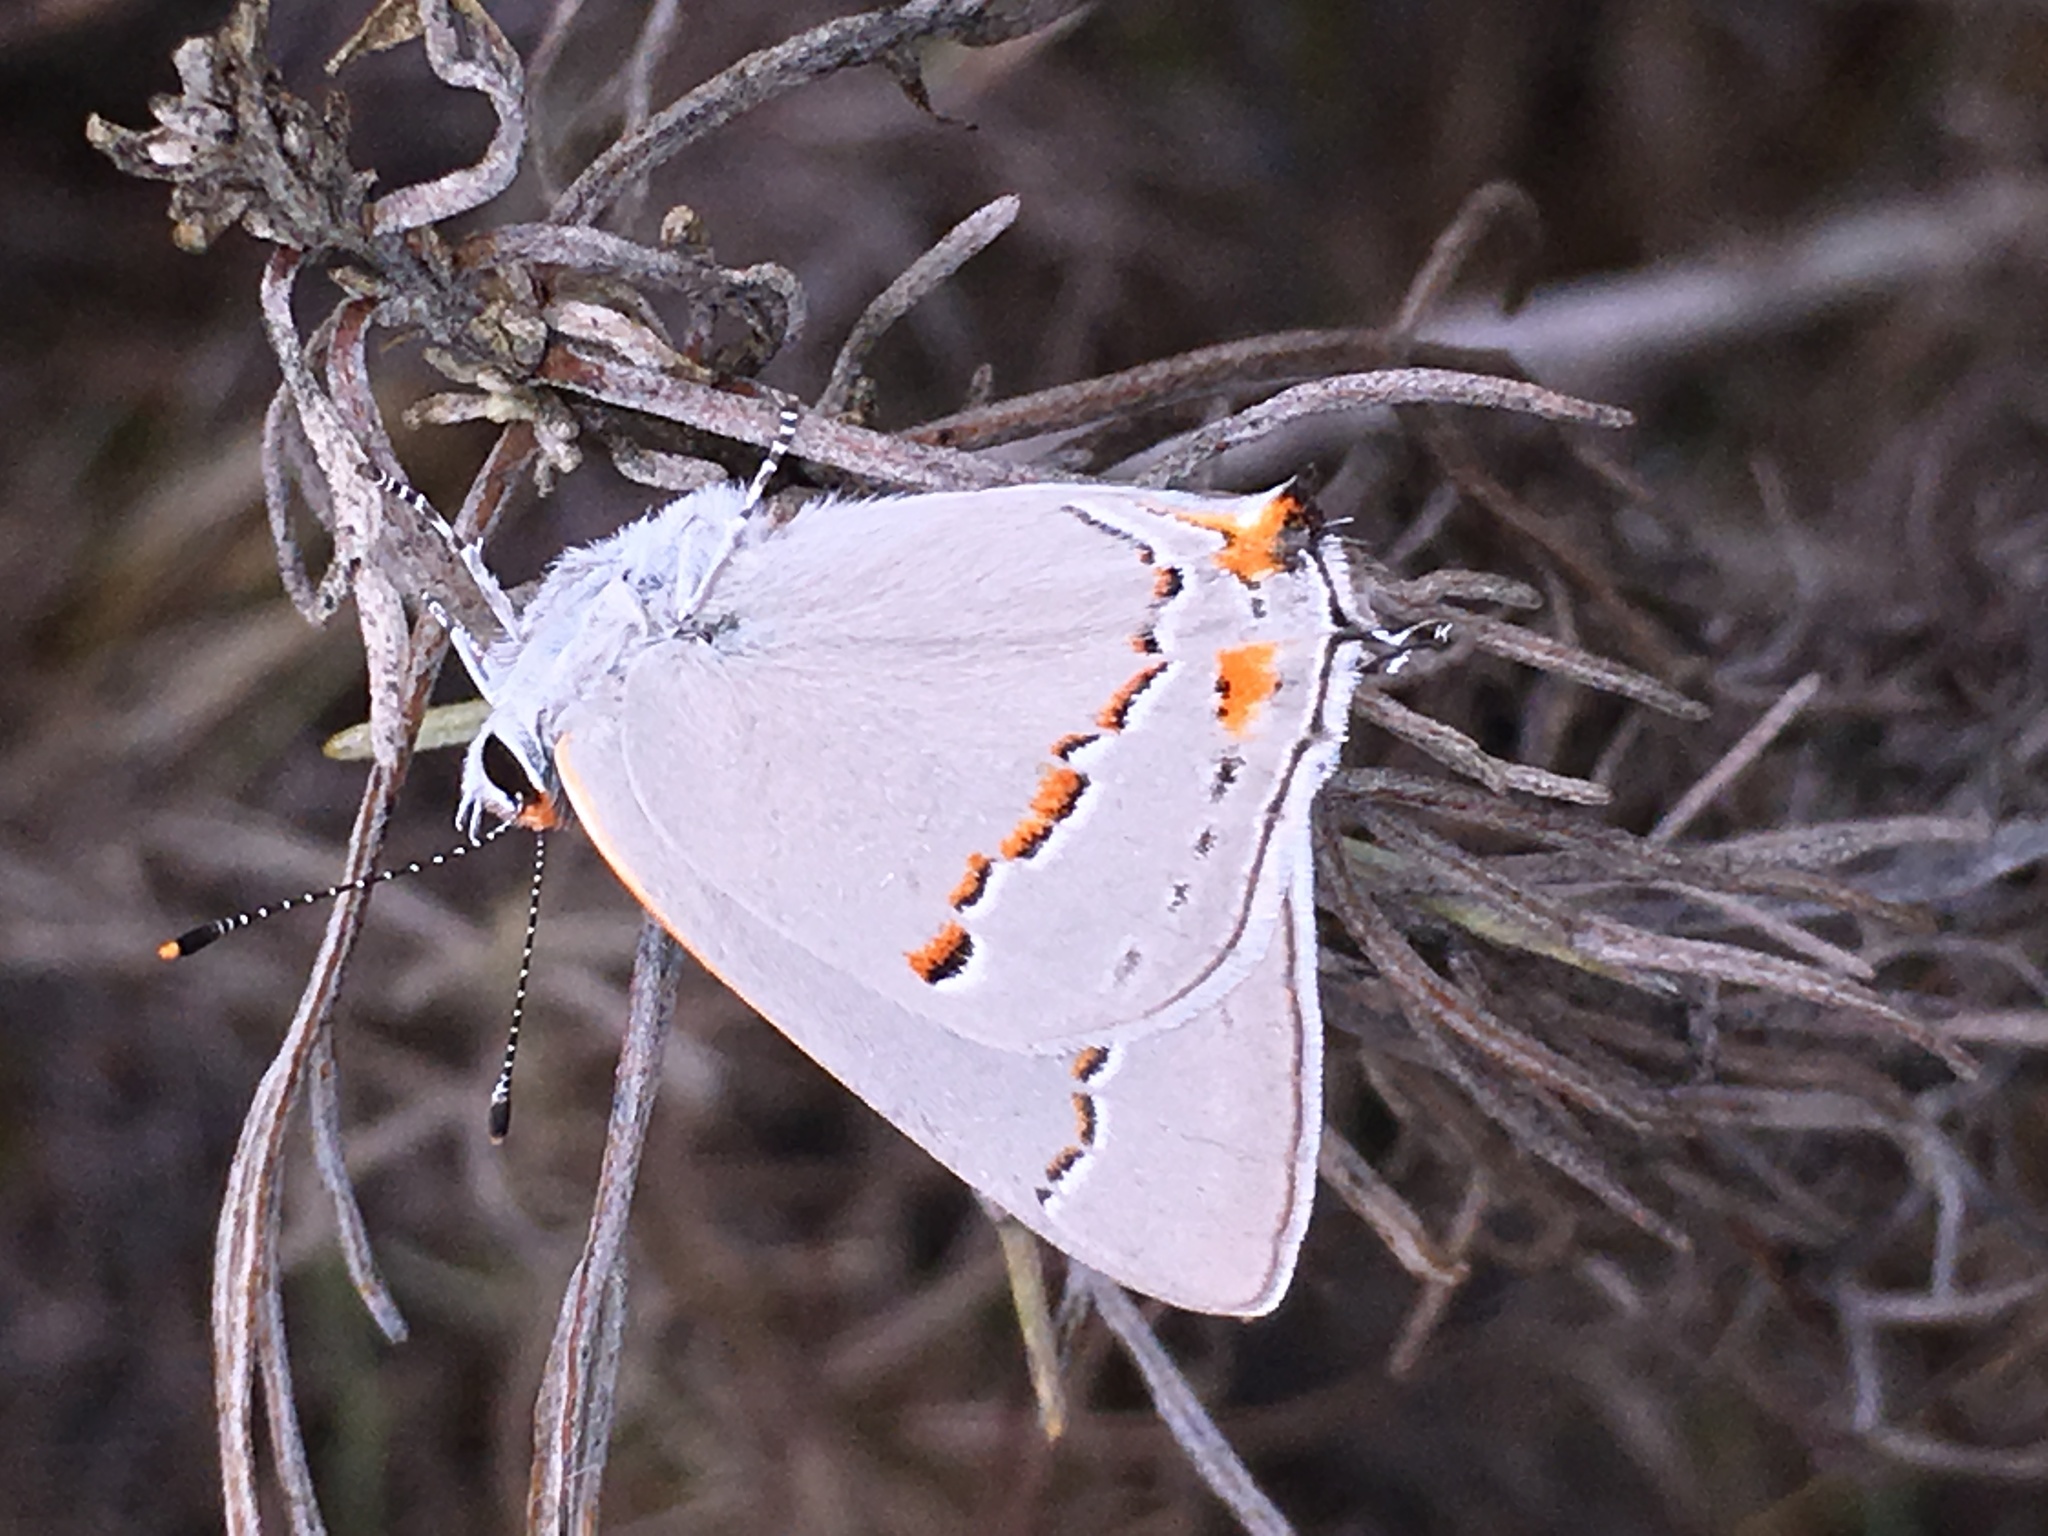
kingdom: Animalia
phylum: Arthropoda
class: Insecta
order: Lepidoptera
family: Lycaenidae
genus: Strymon
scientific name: Strymon melinus
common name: Gray hairstreak
